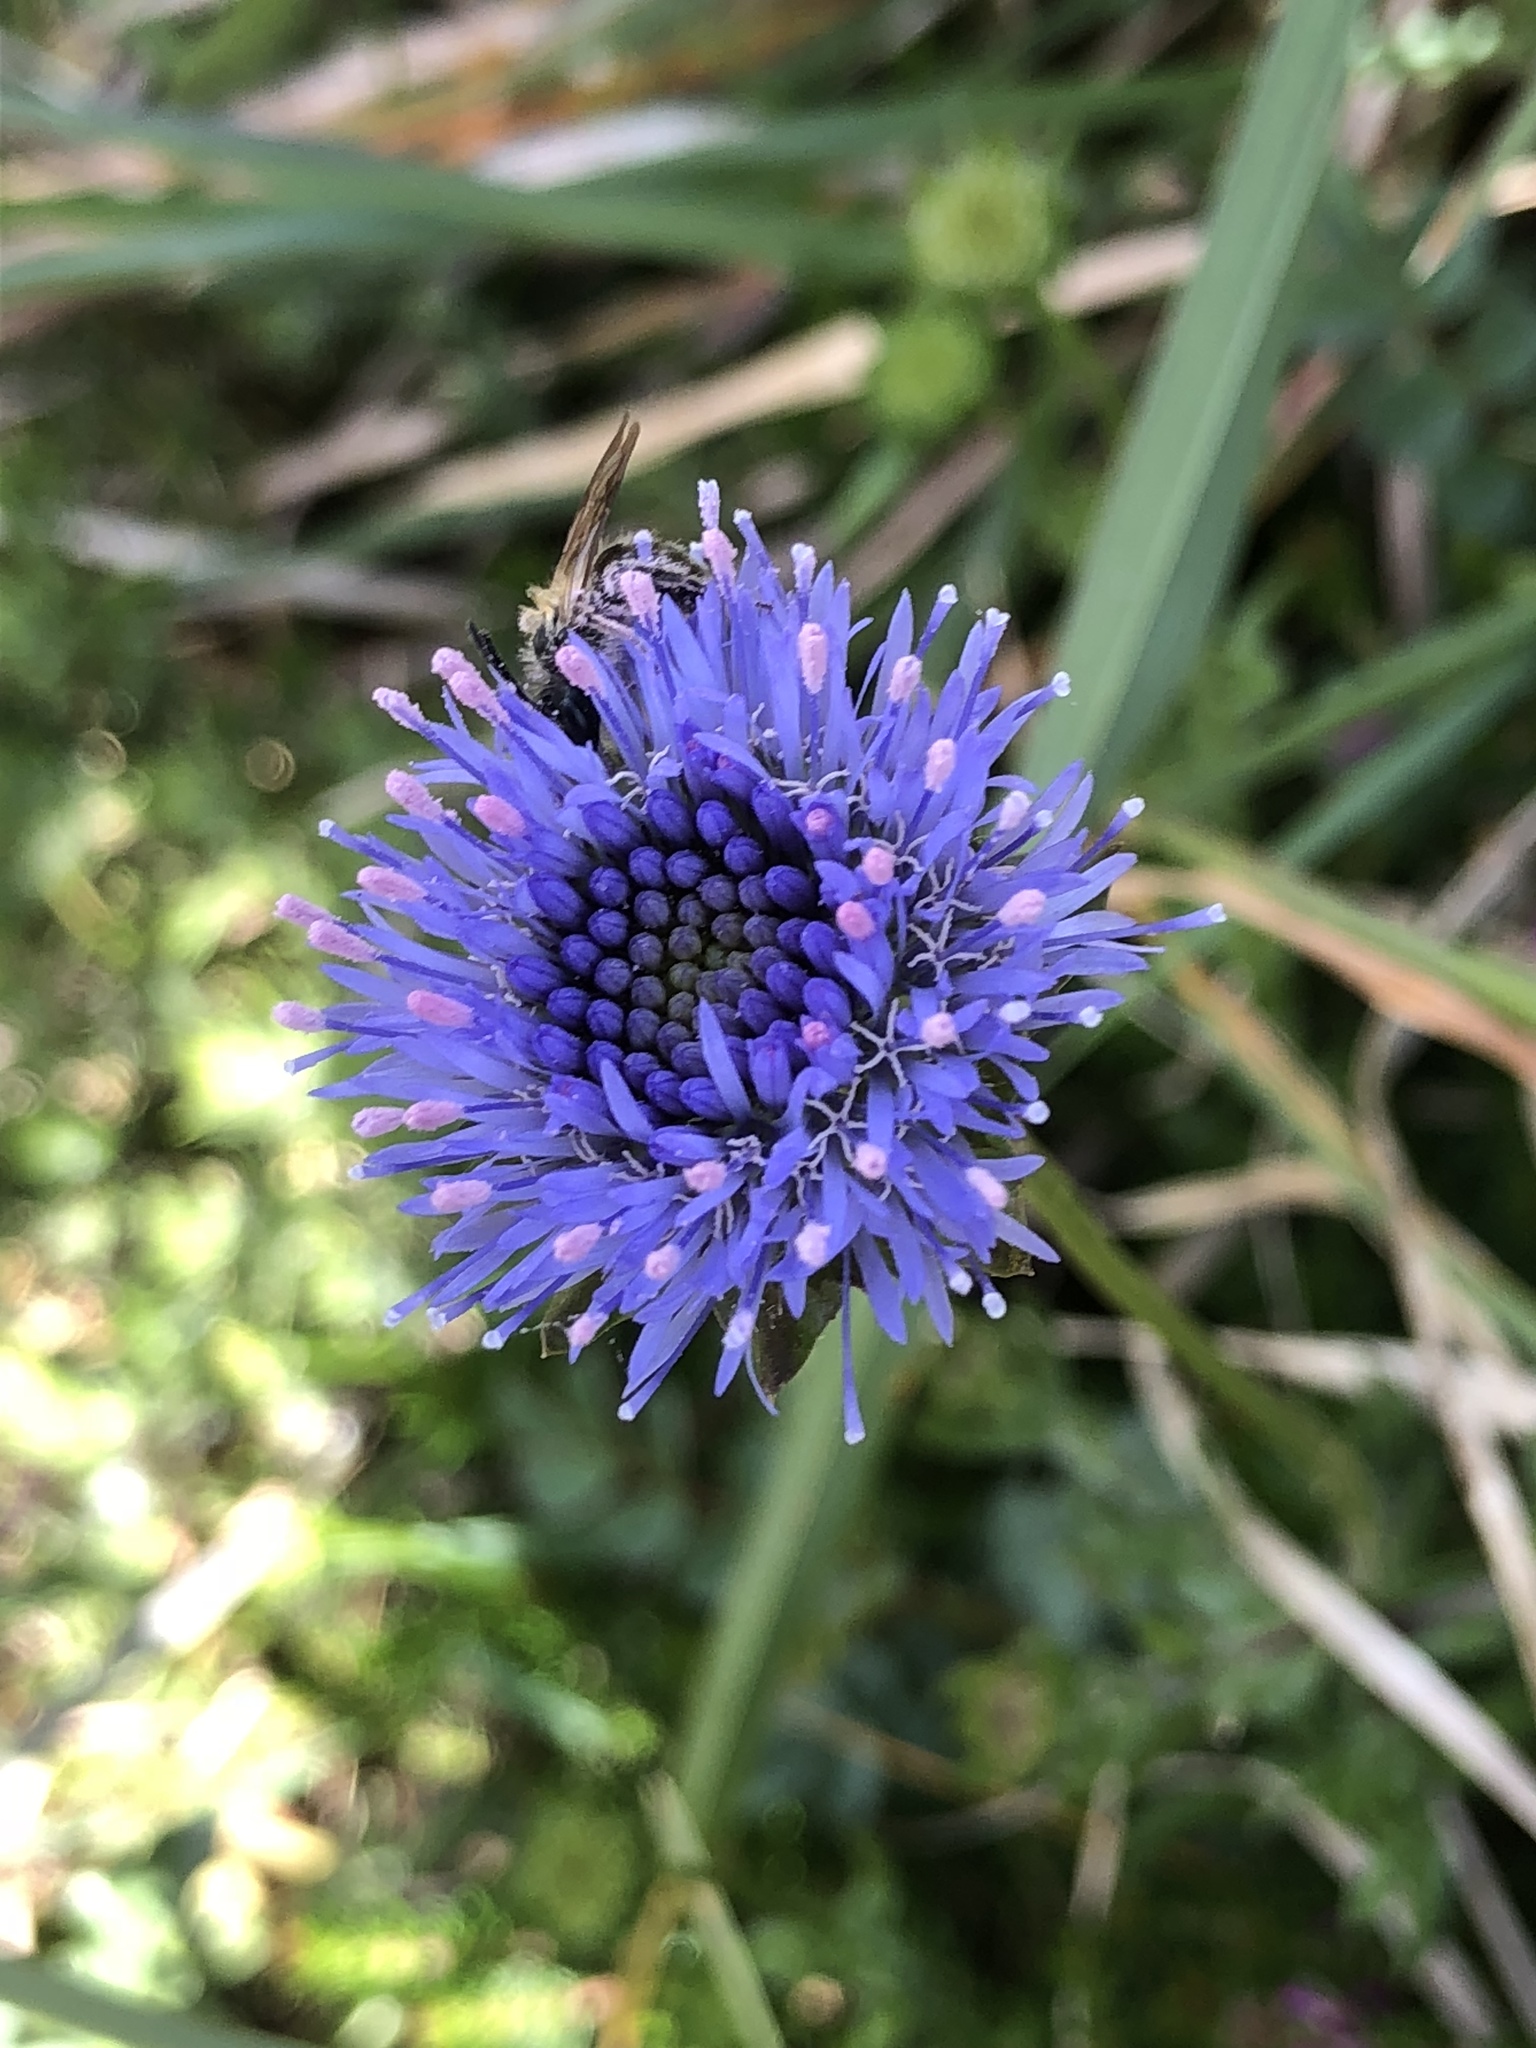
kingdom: Plantae
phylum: Tracheophyta
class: Magnoliopsida
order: Asterales
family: Campanulaceae
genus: Jasione
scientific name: Jasione montana
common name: Sheep's-bit
